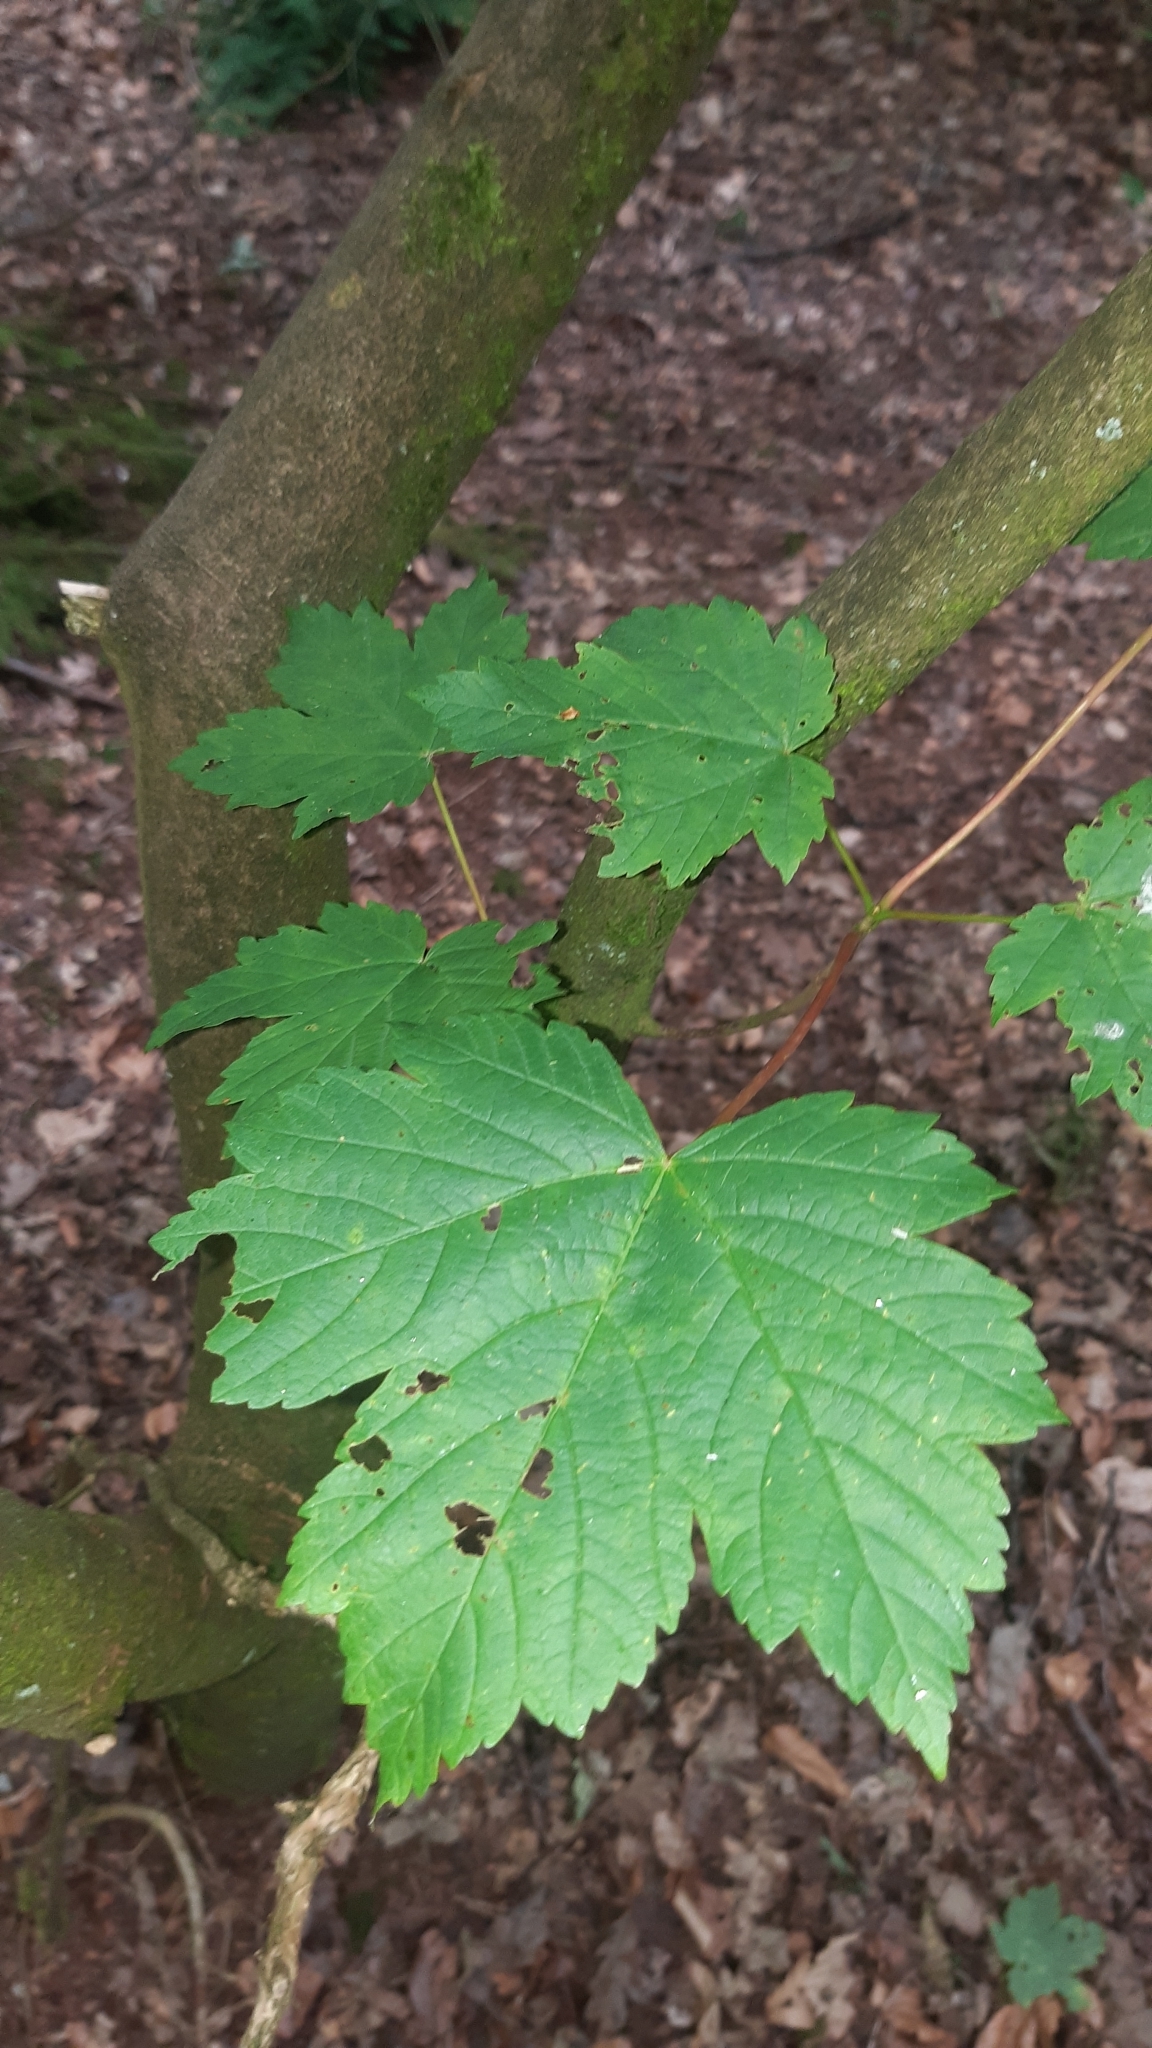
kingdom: Plantae
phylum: Tracheophyta
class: Magnoliopsida
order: Sapindales
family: Sapindaceae
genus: Acer
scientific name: Acer pseudoplatanus
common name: Sycamore
